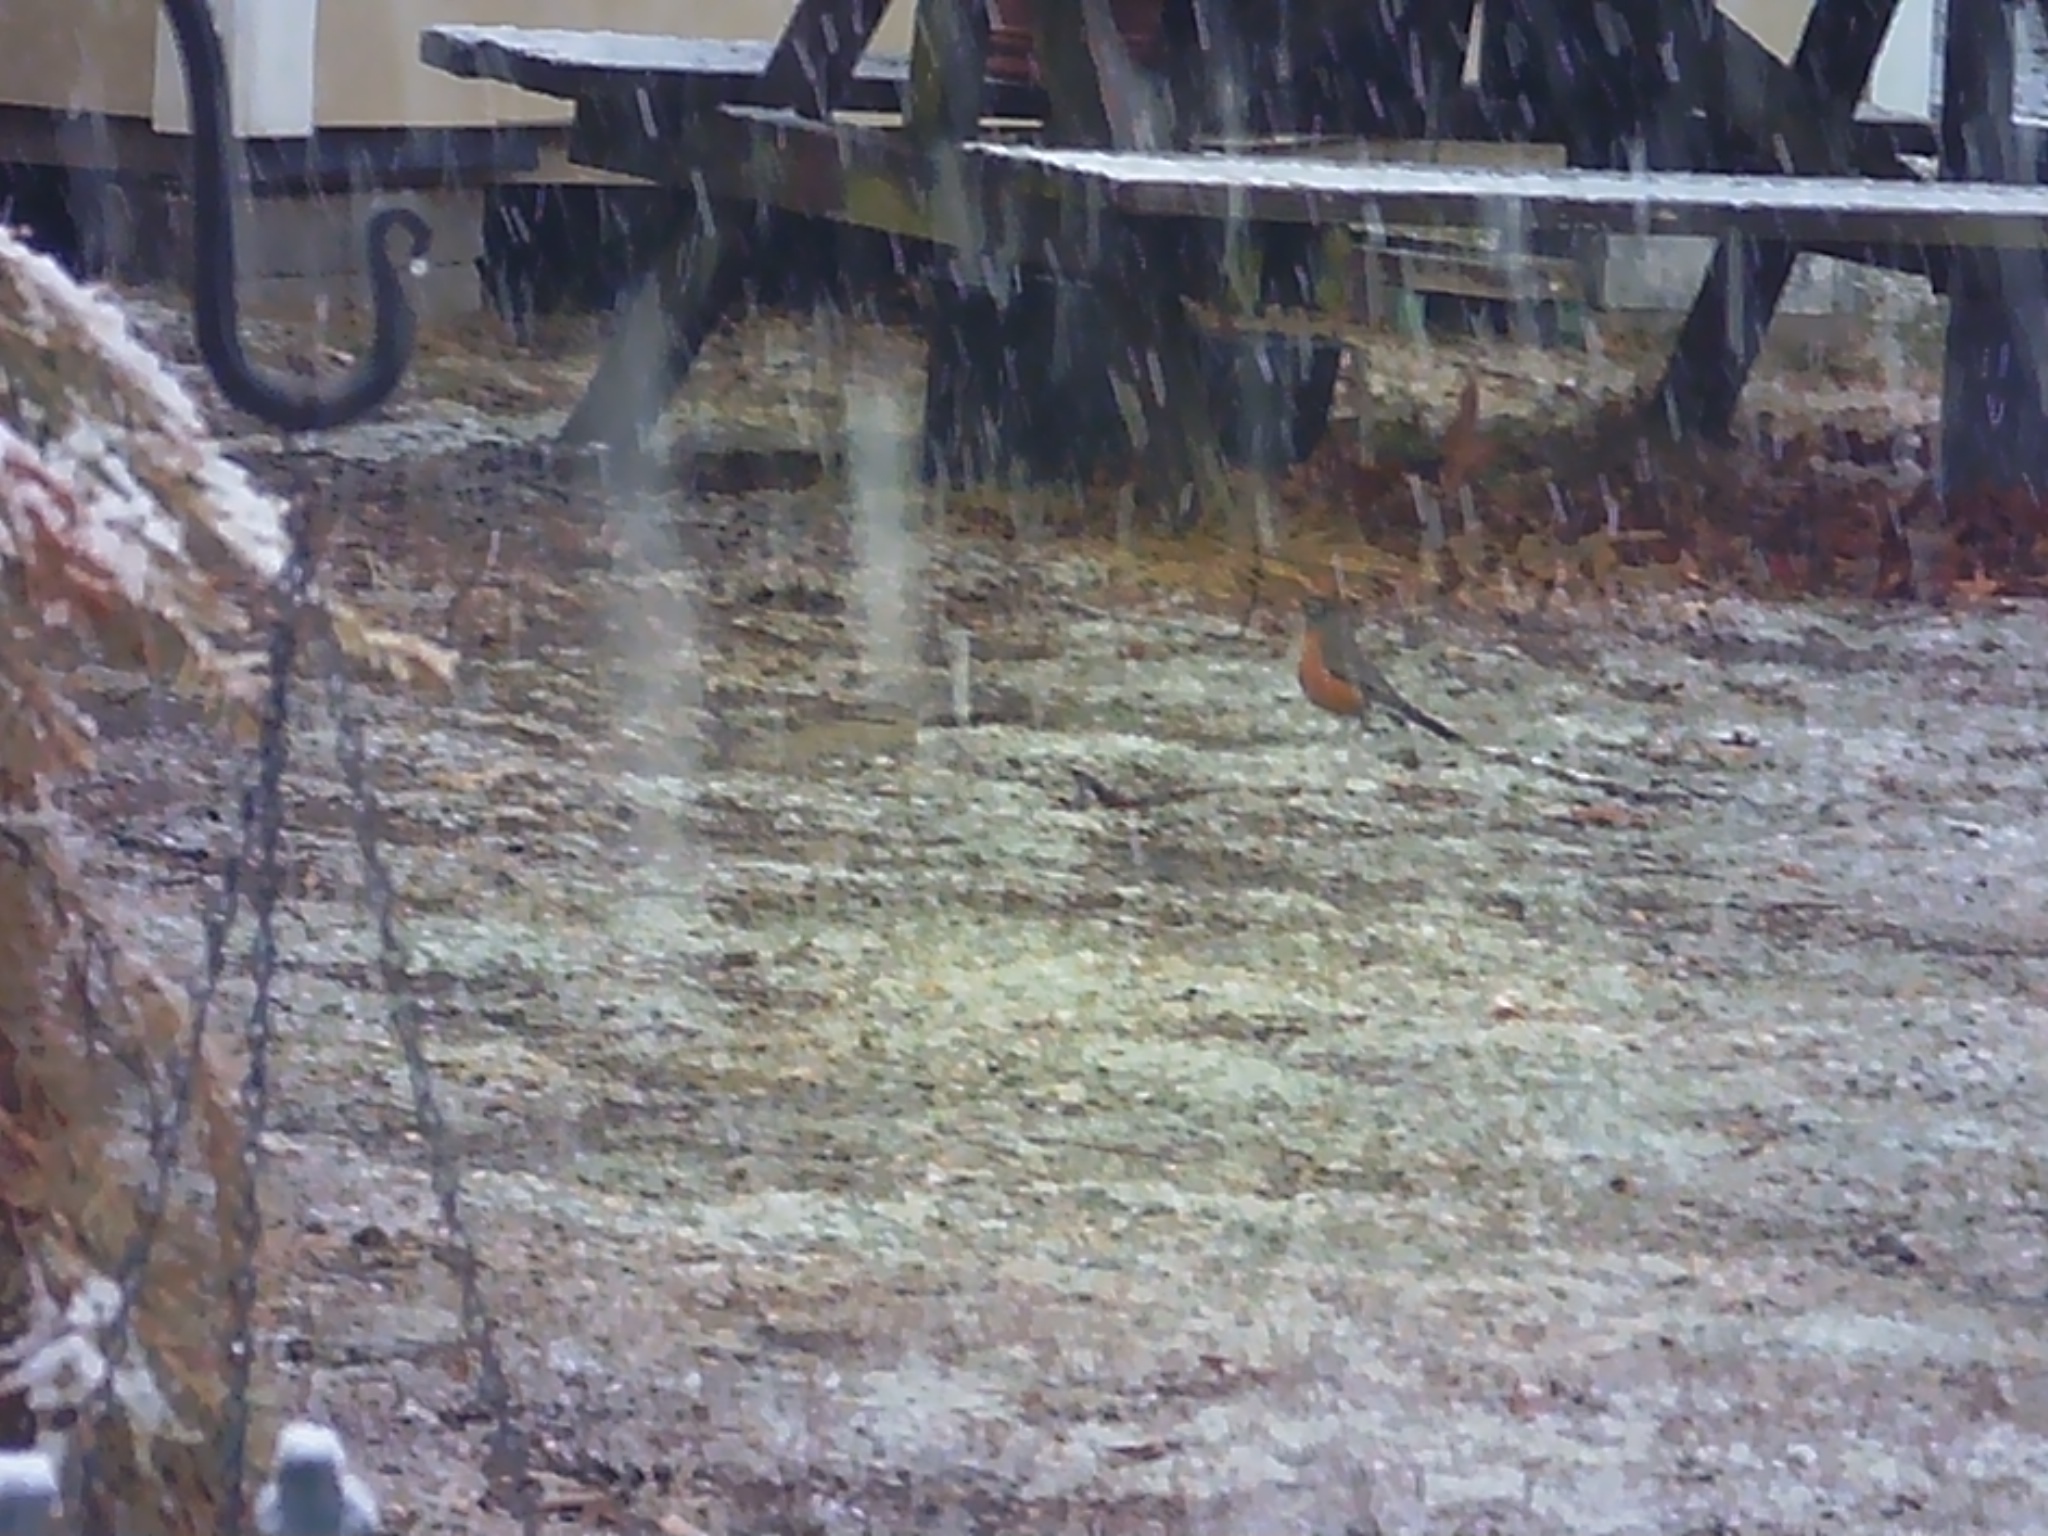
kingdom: Animalia
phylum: Chordata
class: Aves
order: Passeriformes
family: Turdidae
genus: Turdus
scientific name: Turdus migratorius
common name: American robin
